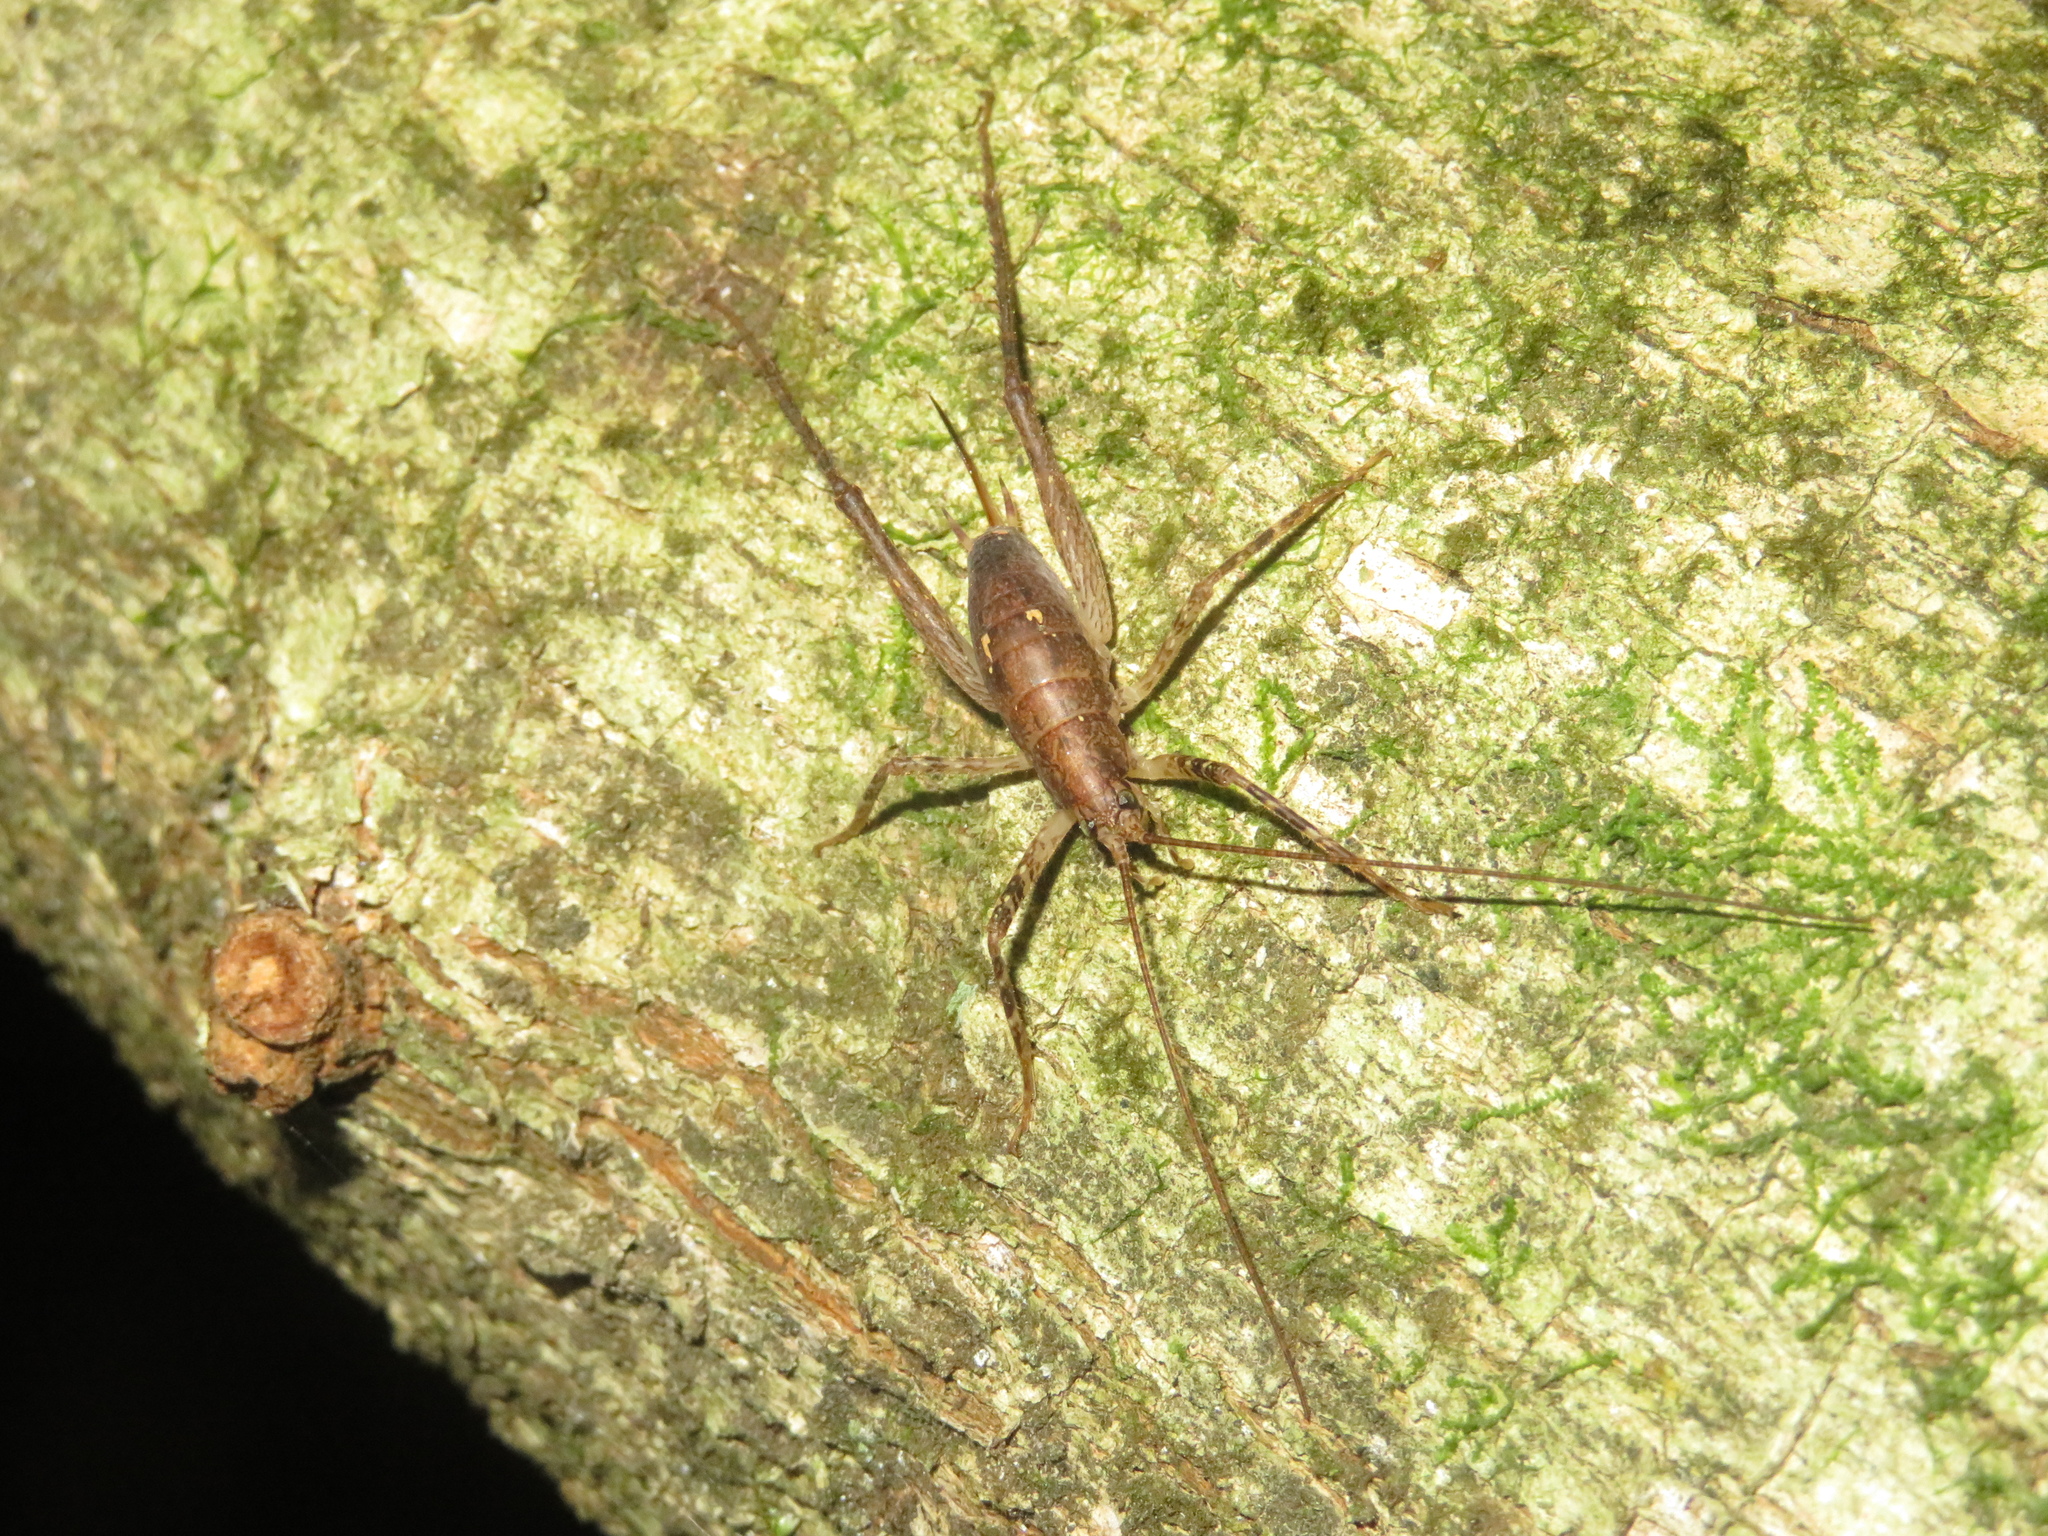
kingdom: Animalia
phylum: Arthropoda
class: Insecta
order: Orthoptera
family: Rhaphidophoridae
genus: Isoplectron
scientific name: Isoplectron armatum
